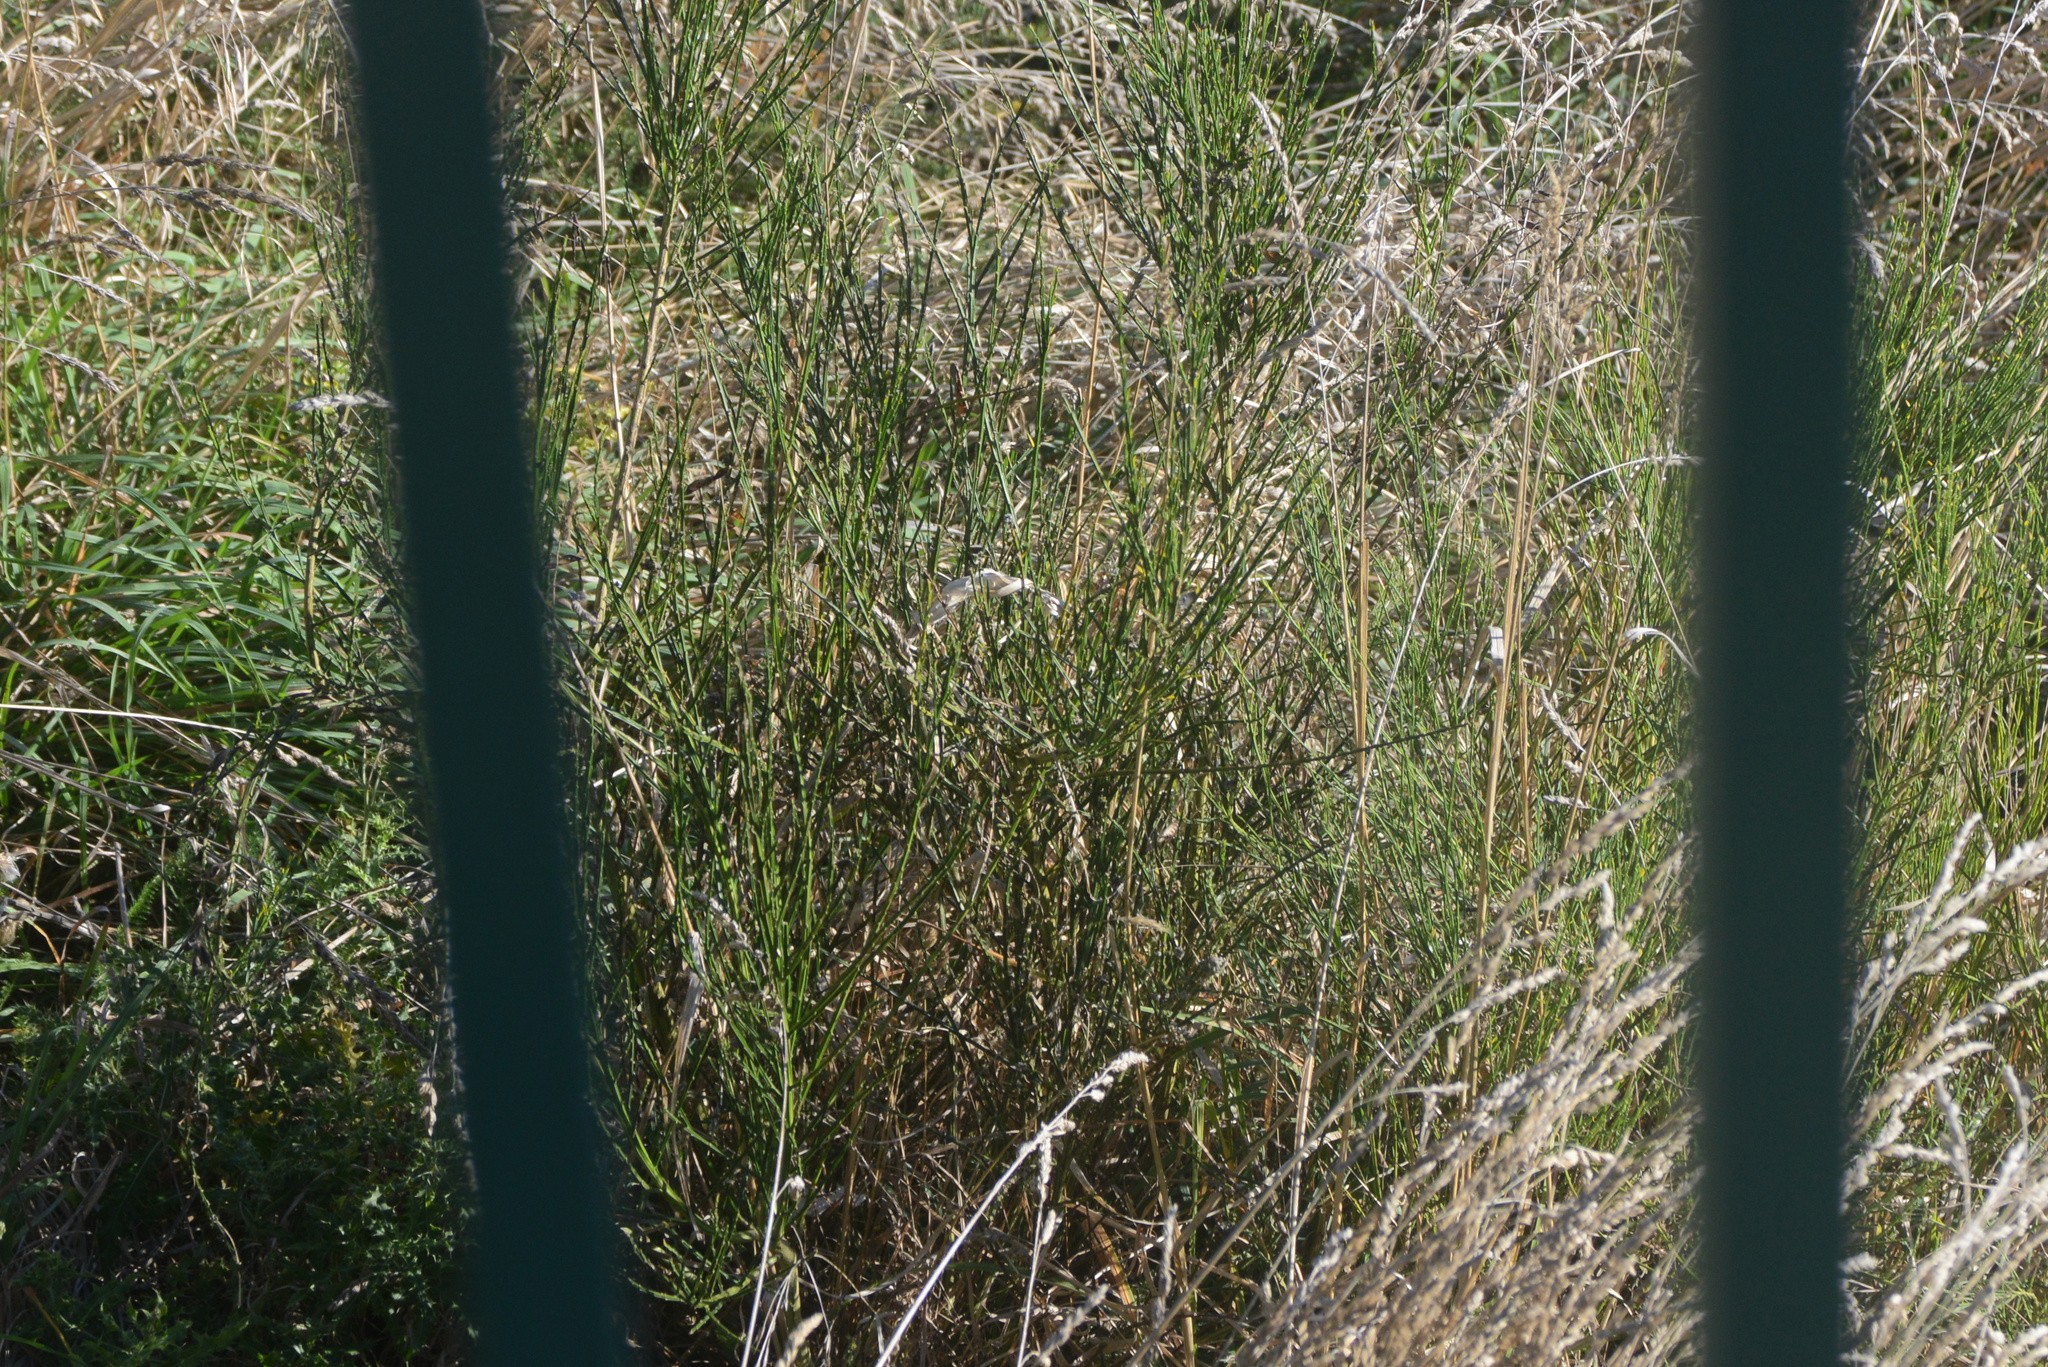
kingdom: Plantae
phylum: Tracheophyta
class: Magnoliopsida
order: Fabales
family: Fabaceae
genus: Cytisus
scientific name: Cytisus scoparius
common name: Scotch broom
